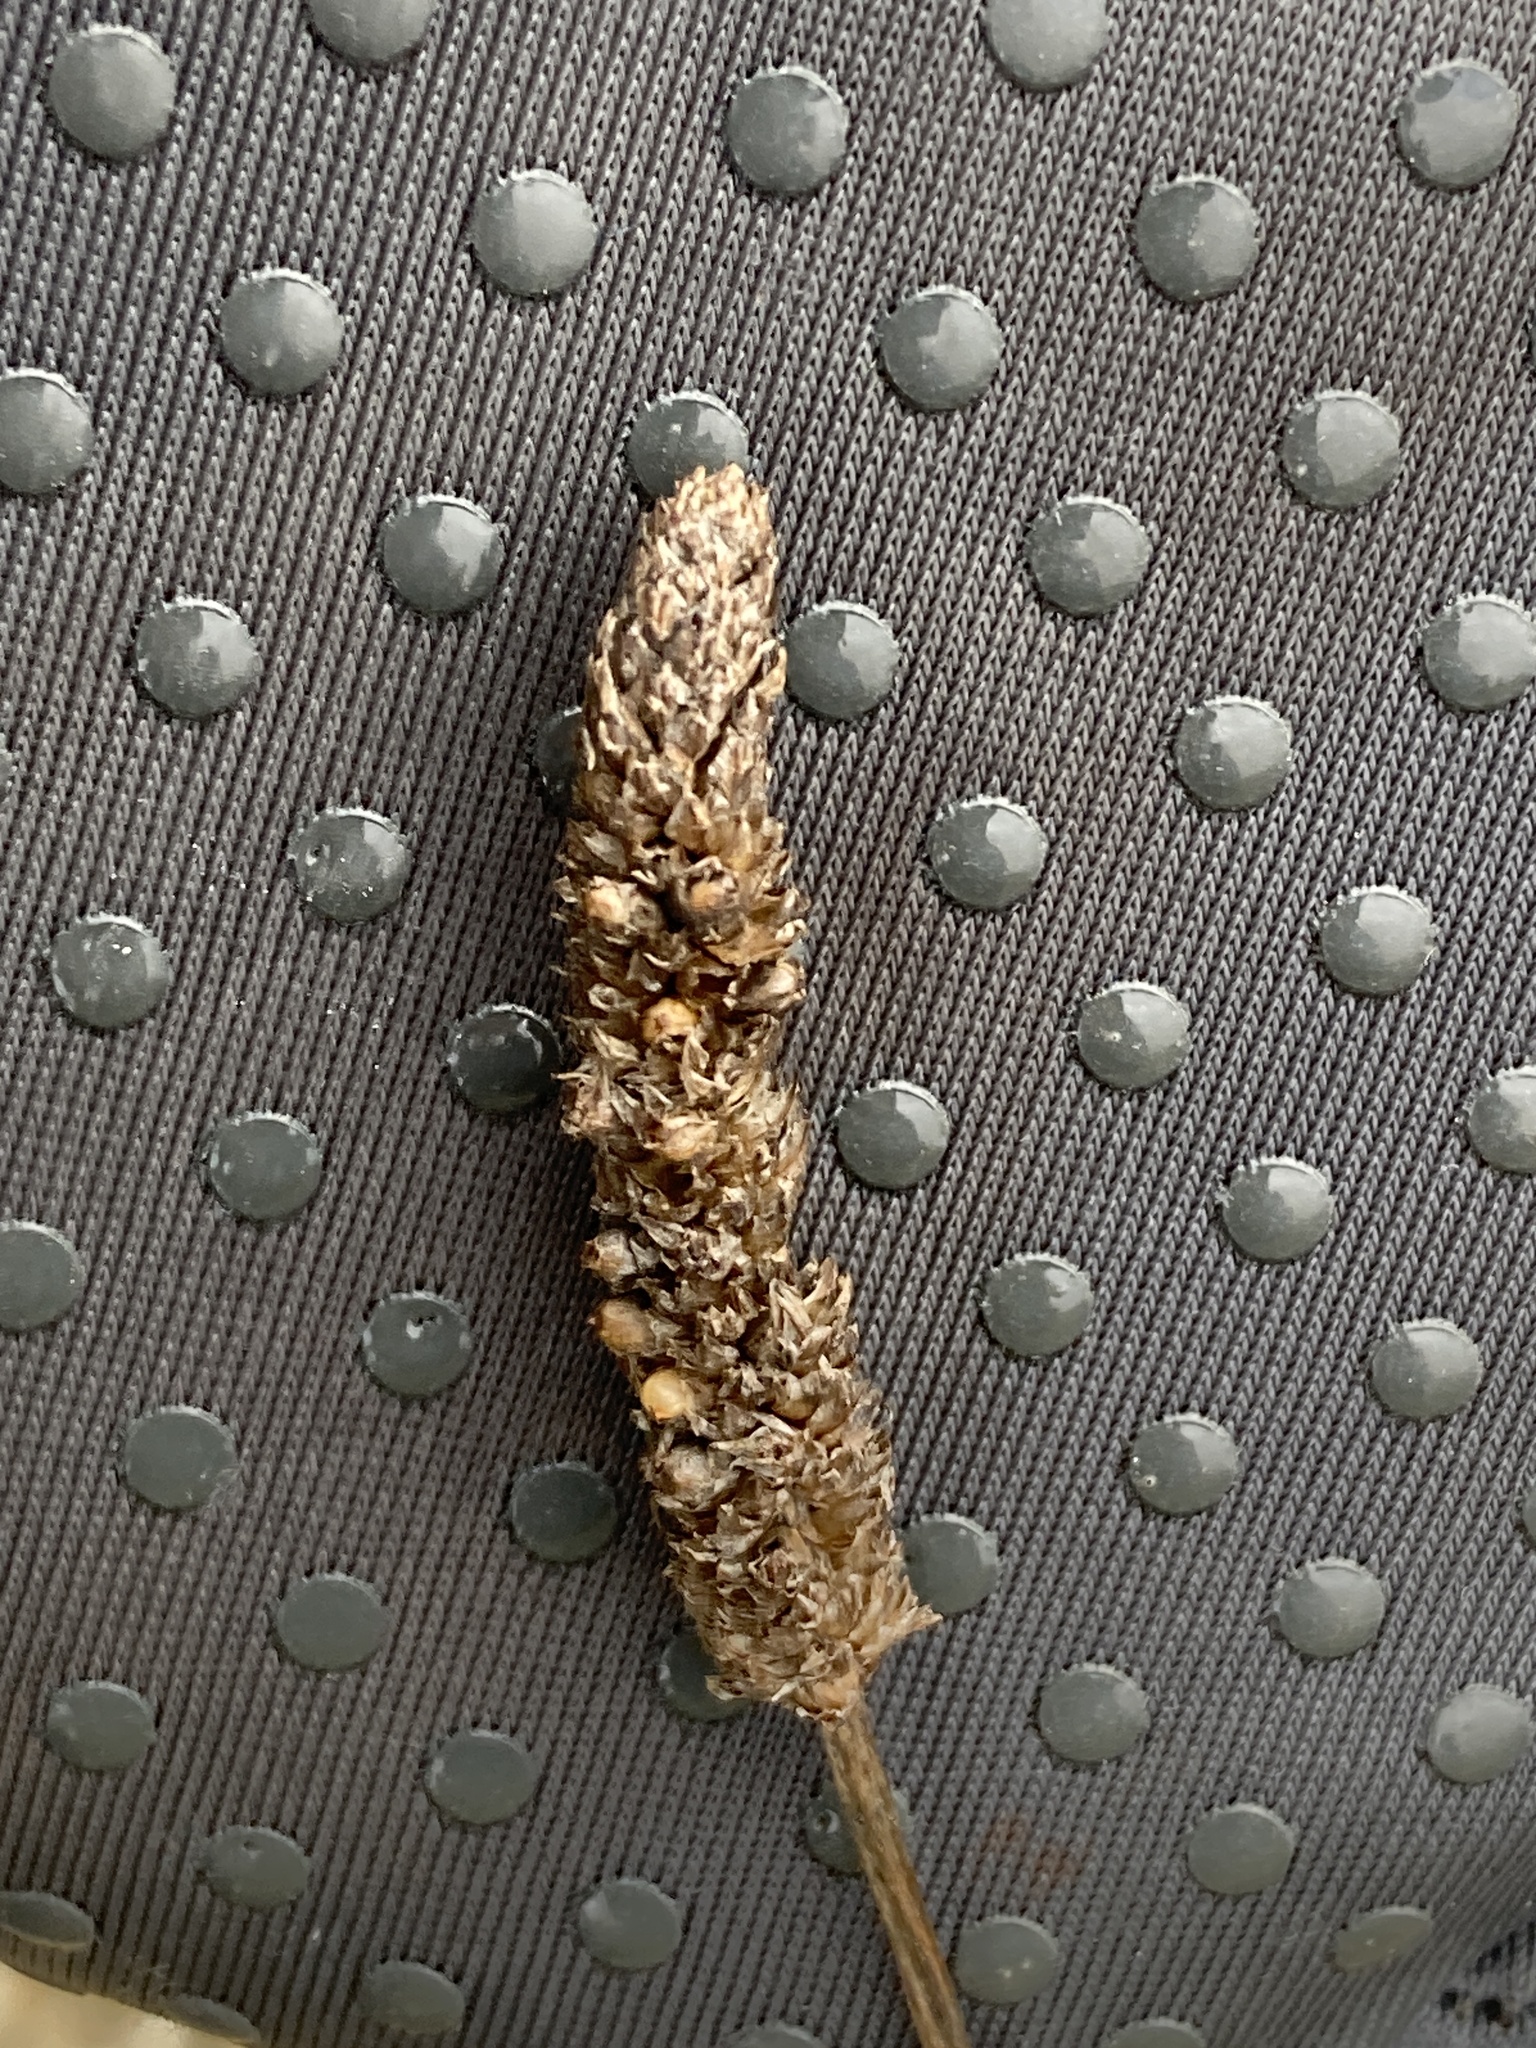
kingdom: Plantae
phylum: Tracheophyta
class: Magnoliopsida
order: Lamiales
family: Plantaginaceae
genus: Plantago
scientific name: Plantago lanceolata
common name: Ribwort plantain
